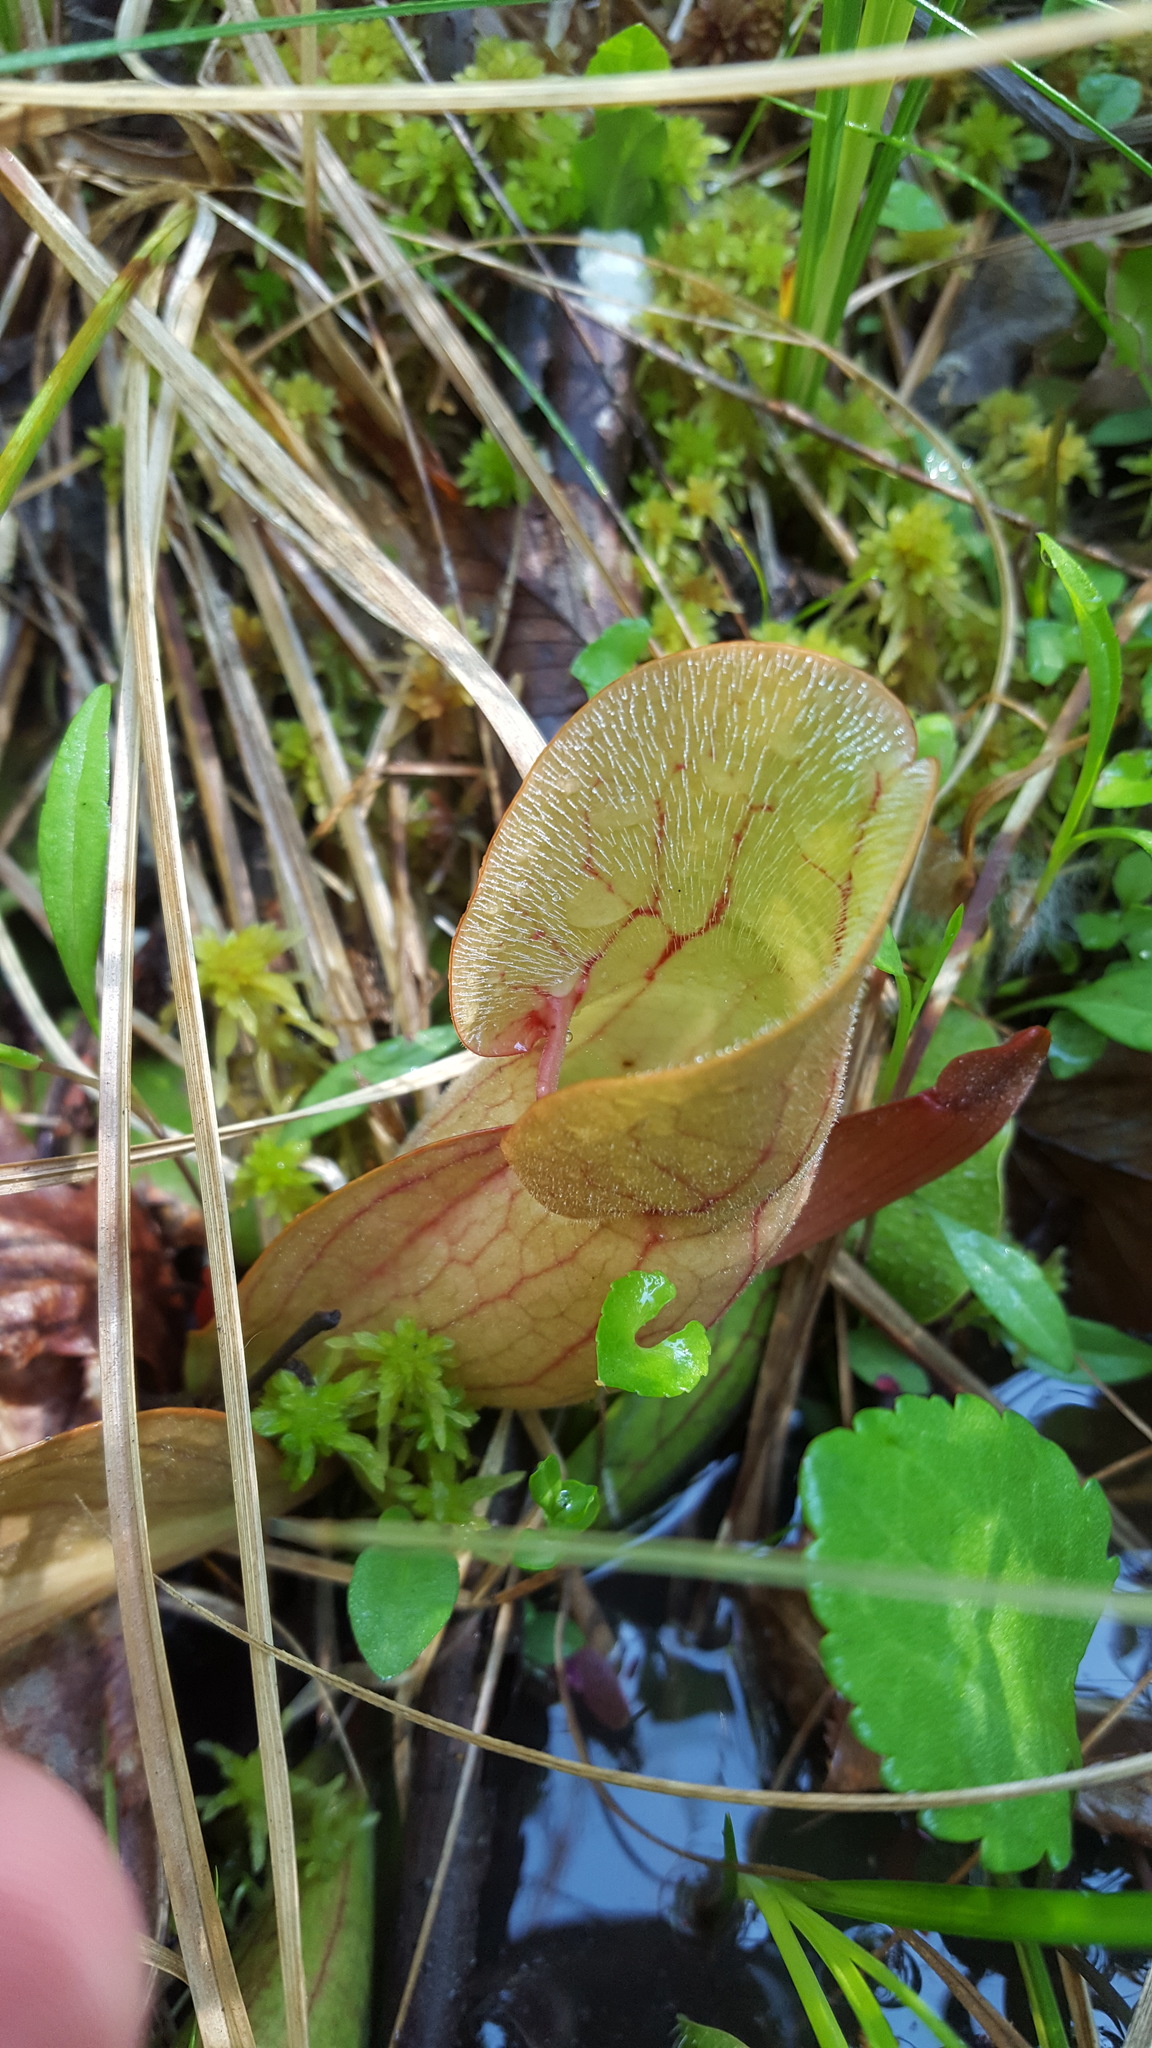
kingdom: Plantae
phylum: Tracheophyta
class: Magnoliopsida
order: Ericales
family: Sarraceniaceae
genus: Sarracenia
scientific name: Sarracenia purpurea
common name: Pitcherplant
